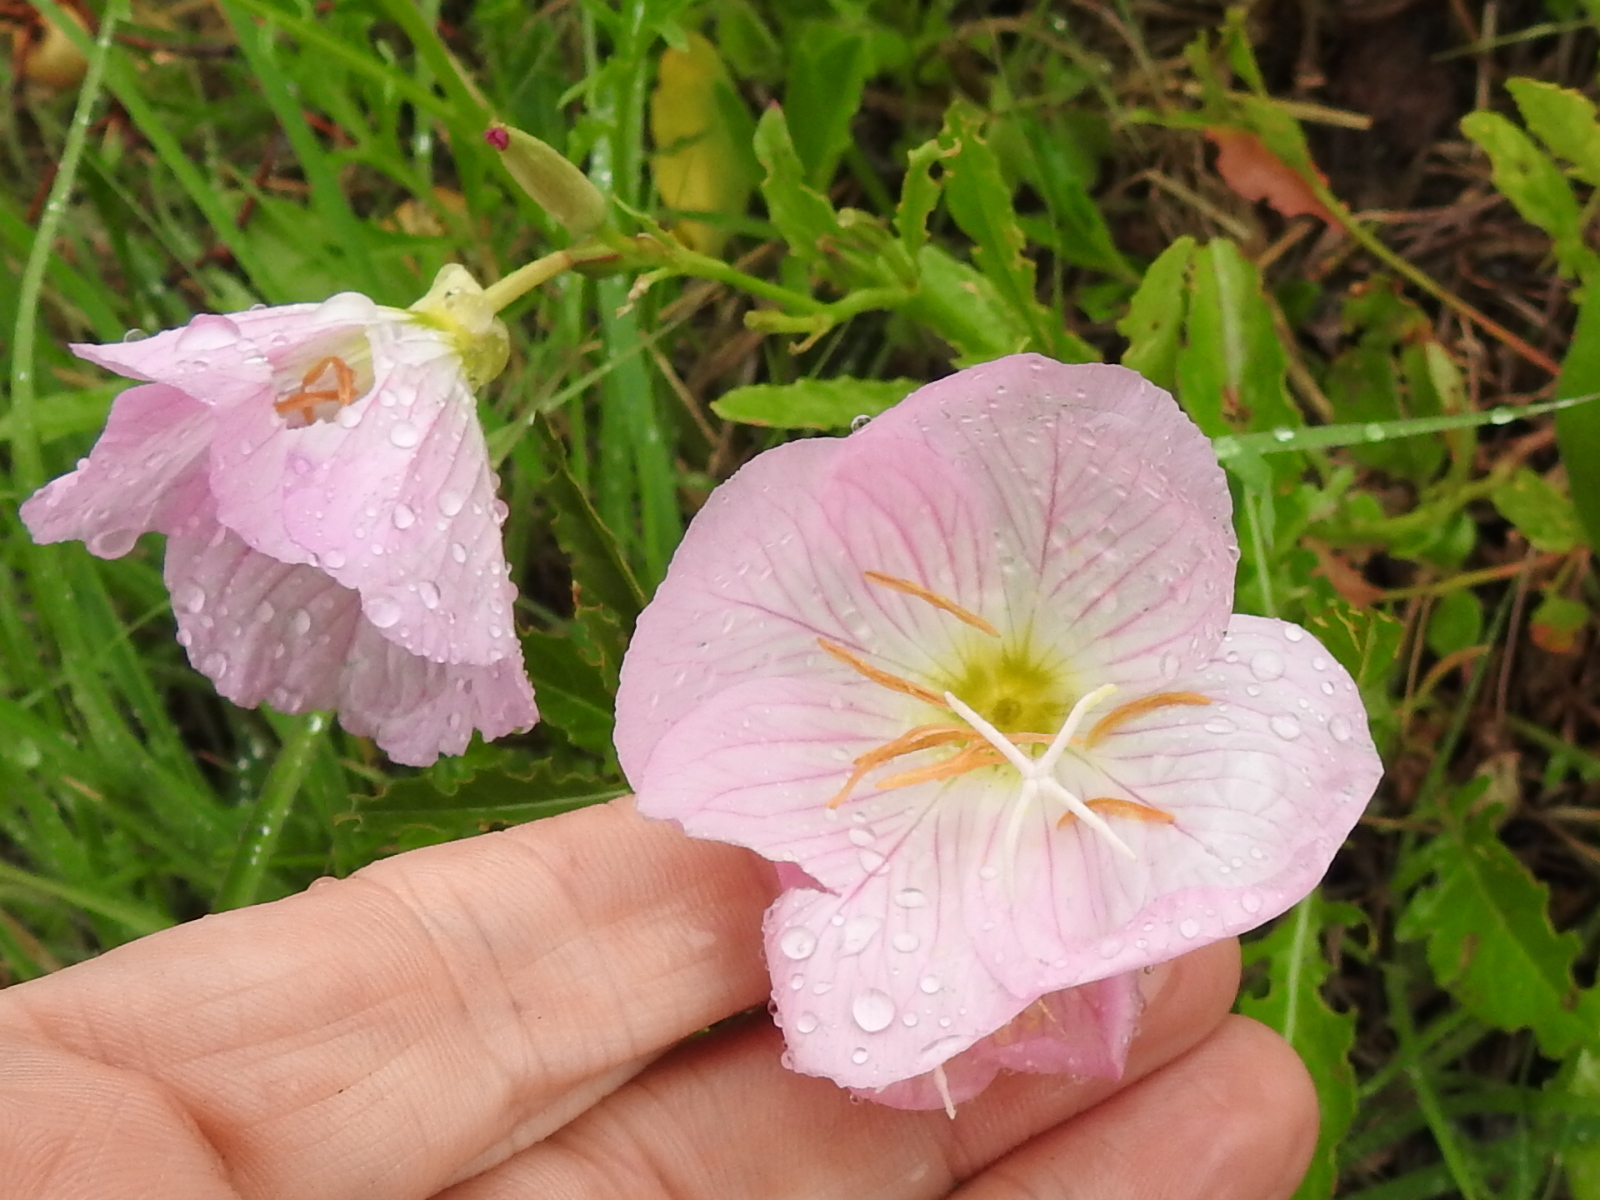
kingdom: Plantae
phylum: Tracheophyta
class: Magnoliopsida
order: Myrtales
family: Onagraceae
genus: Oenothera
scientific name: Oenothera speciosa
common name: White evening-primrose
